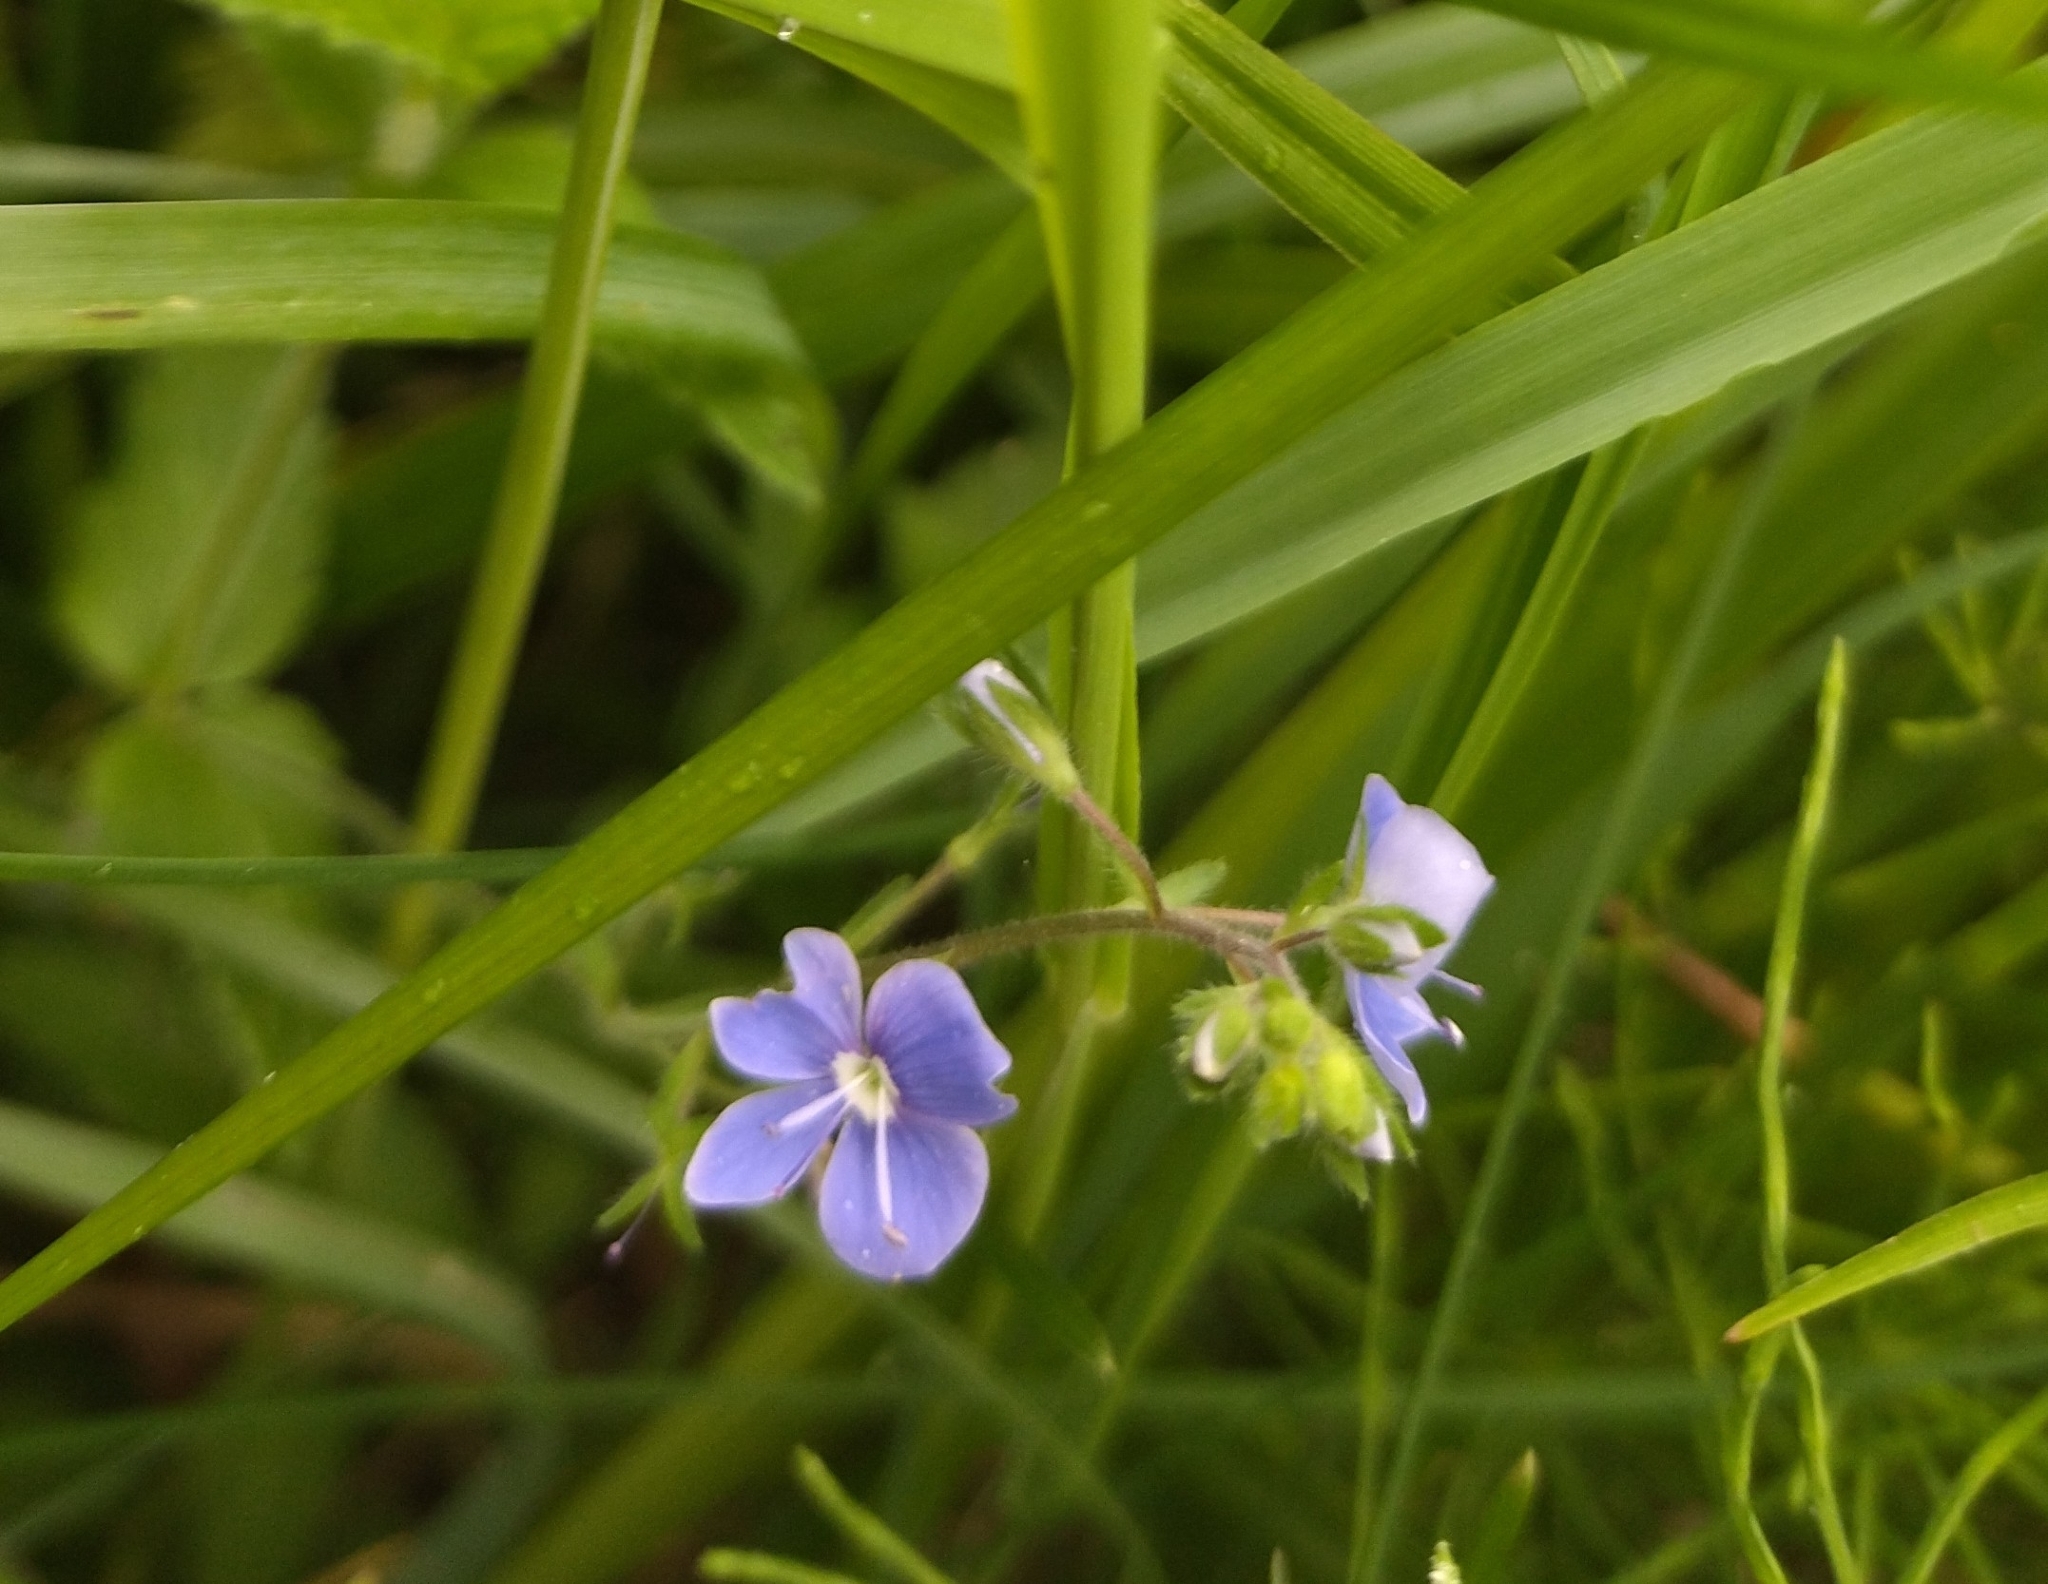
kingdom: Plantae
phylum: Tracheophyta
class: Magnoliopsida
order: Lamiales
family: Plantaginaceae
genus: Veronica
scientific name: Veronica chamaedrys
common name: Germander speedwell
